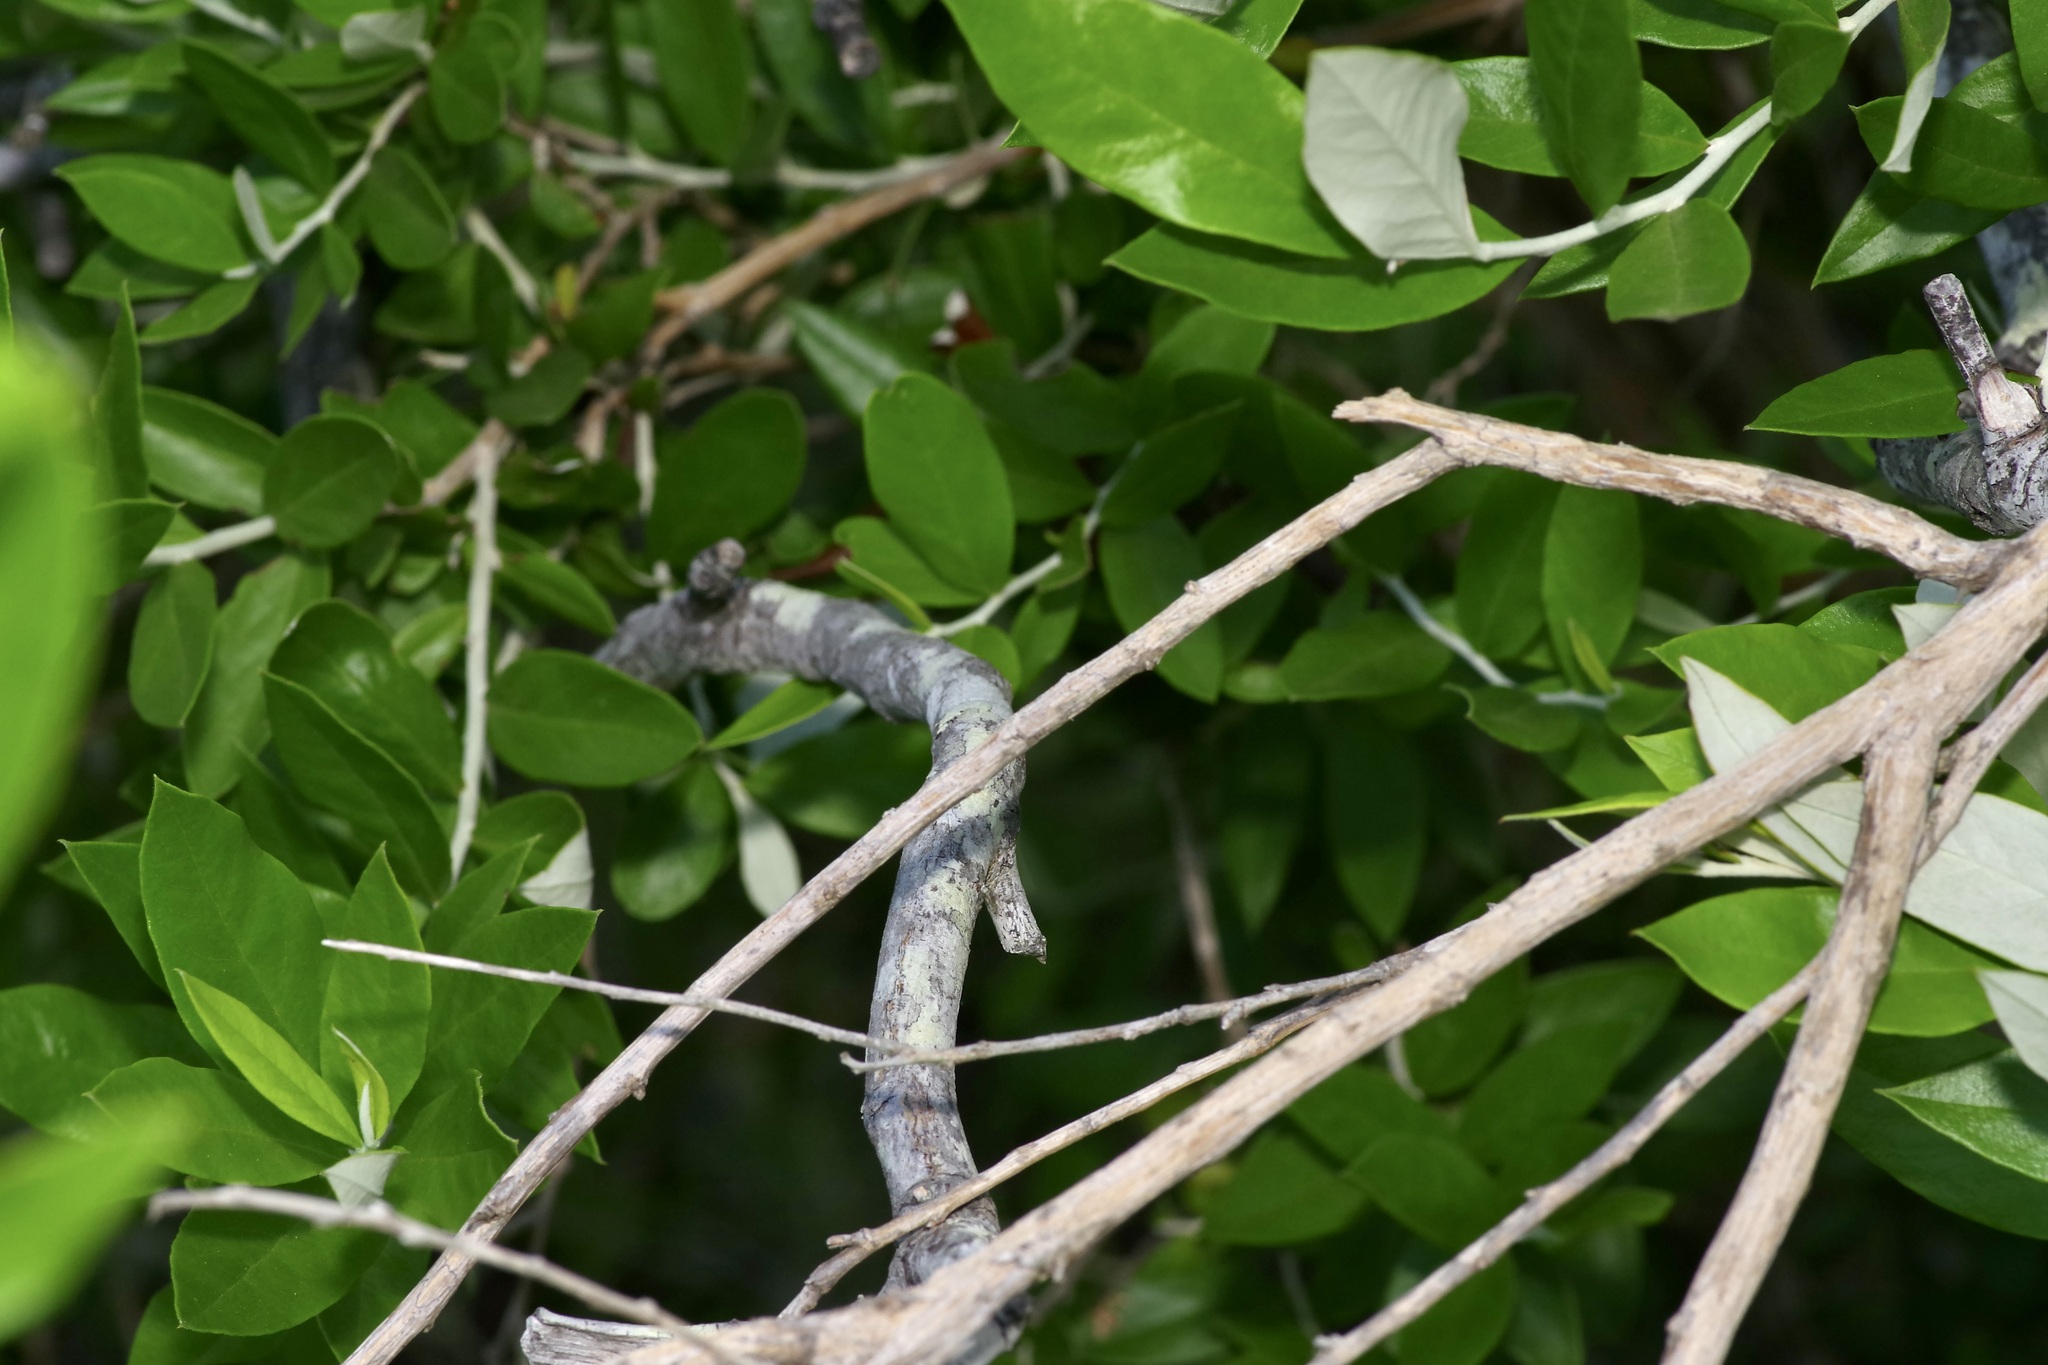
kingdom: Plantae
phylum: Tracheophyta
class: Magnoliopsida
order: Asterales
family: Asteraceae
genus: Nahuatlea
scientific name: Nahuatlea hypoleuca
